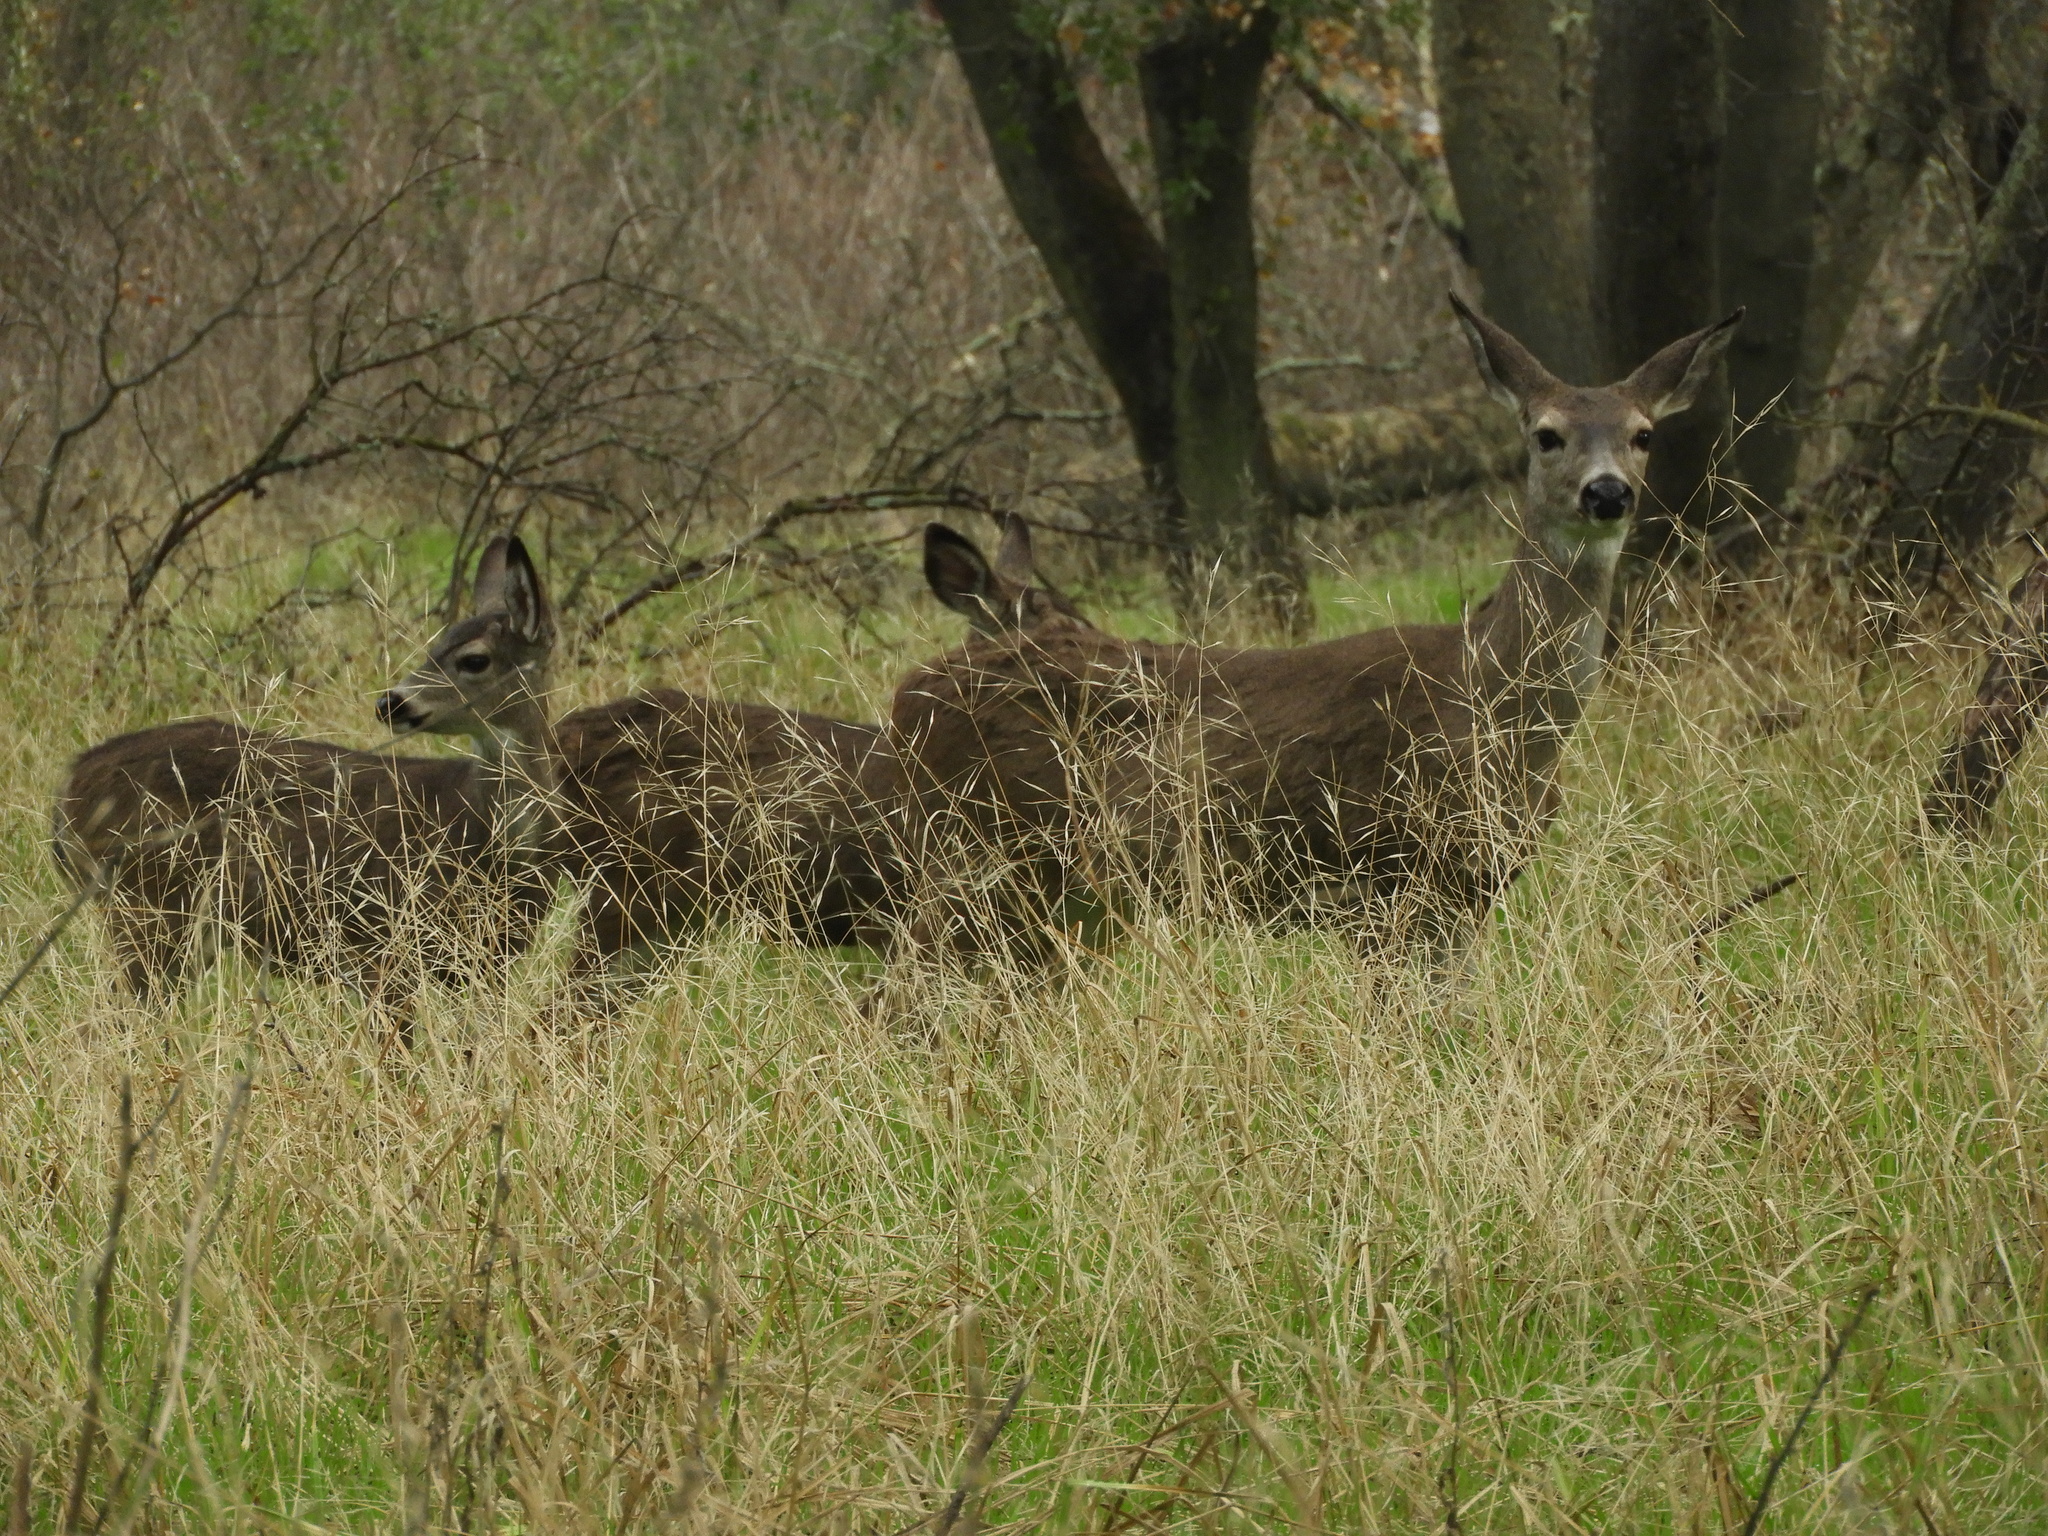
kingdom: Animalia
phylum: Chordata
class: Mammalia
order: Artiodactyla
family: Cervidae
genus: Odocoileus
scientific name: Odocoileus hemionus
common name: Mule deer
